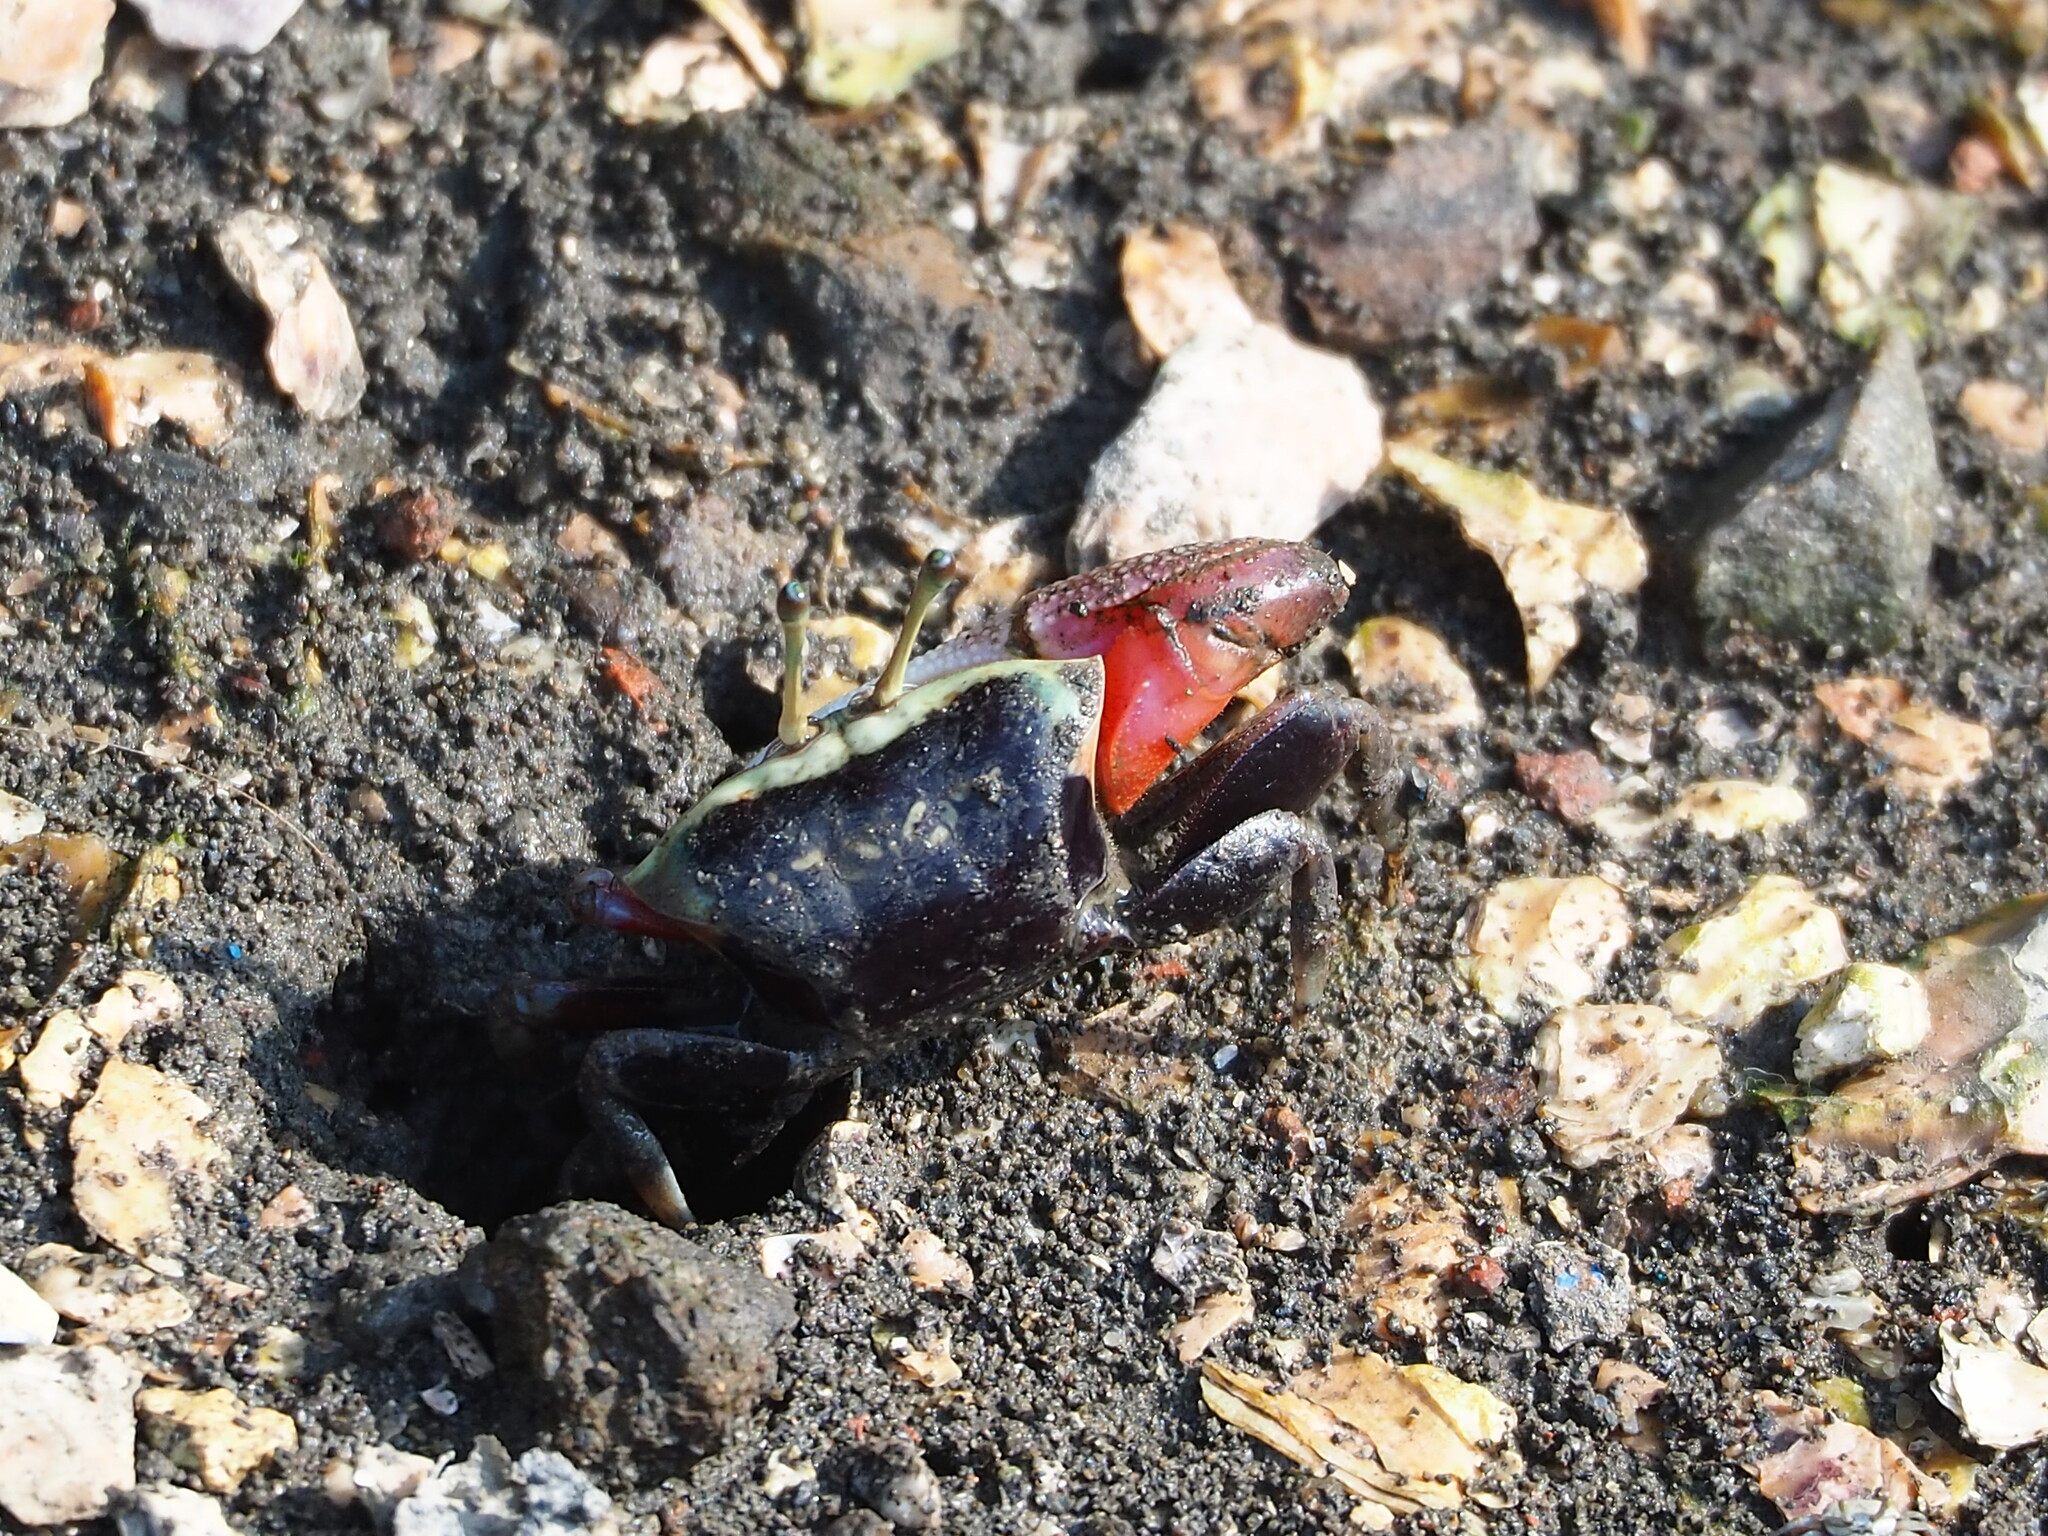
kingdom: Animalia
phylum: Arthropoda
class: Malacostraca
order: Decapoda
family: Ocypodidae
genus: Tubuca
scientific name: Tubuca arcuata
